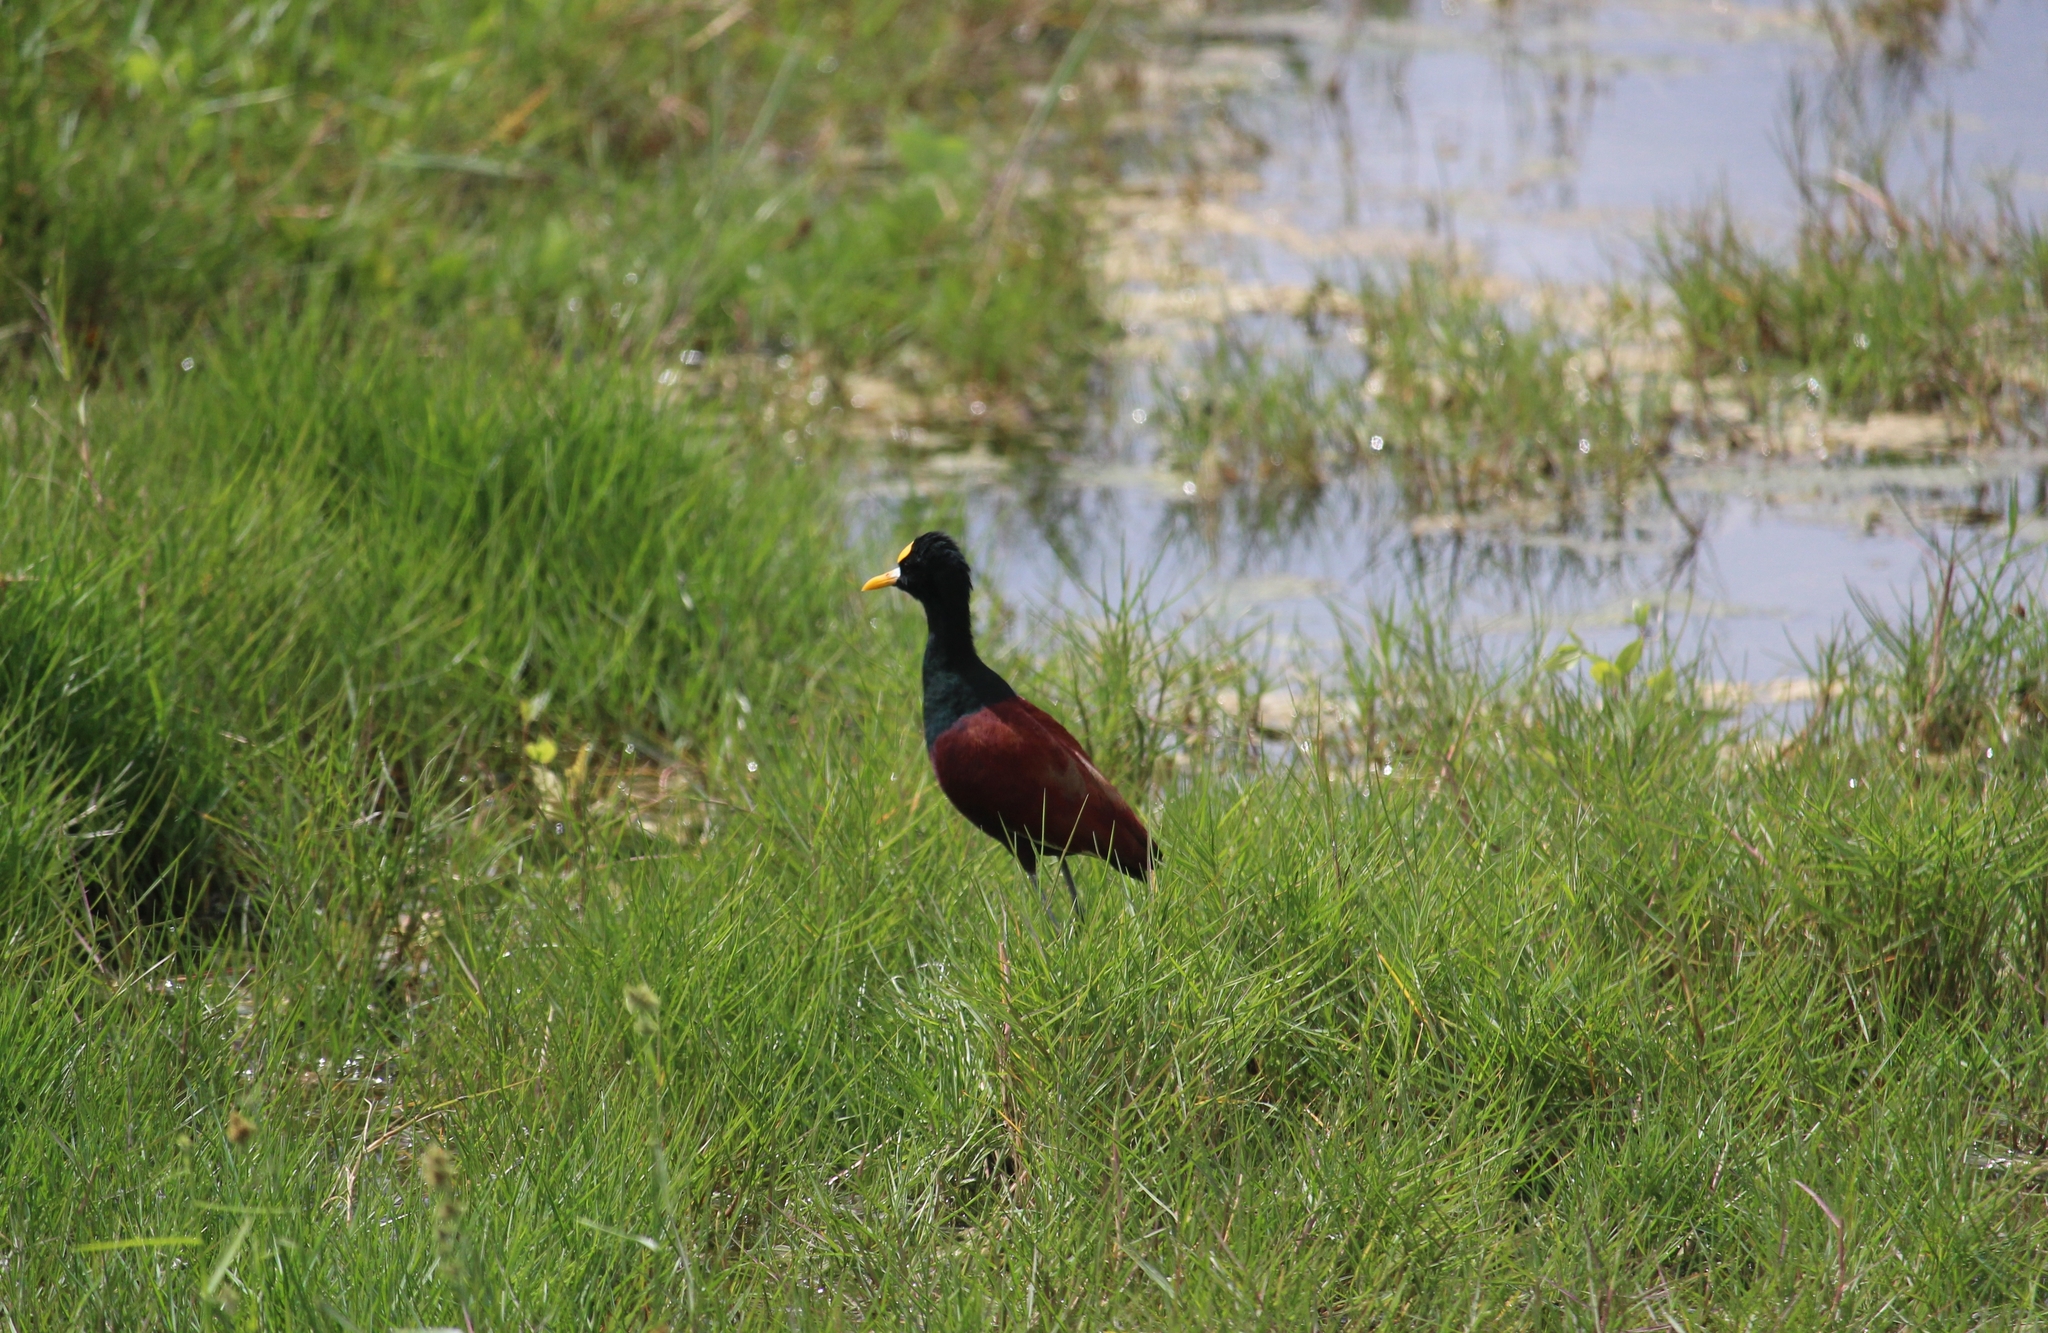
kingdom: Animalia
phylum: Chordata
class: Aves
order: Charadriiformes
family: Jacanidae
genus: Jacana
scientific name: Jacana spinosa
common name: Northern jacana
